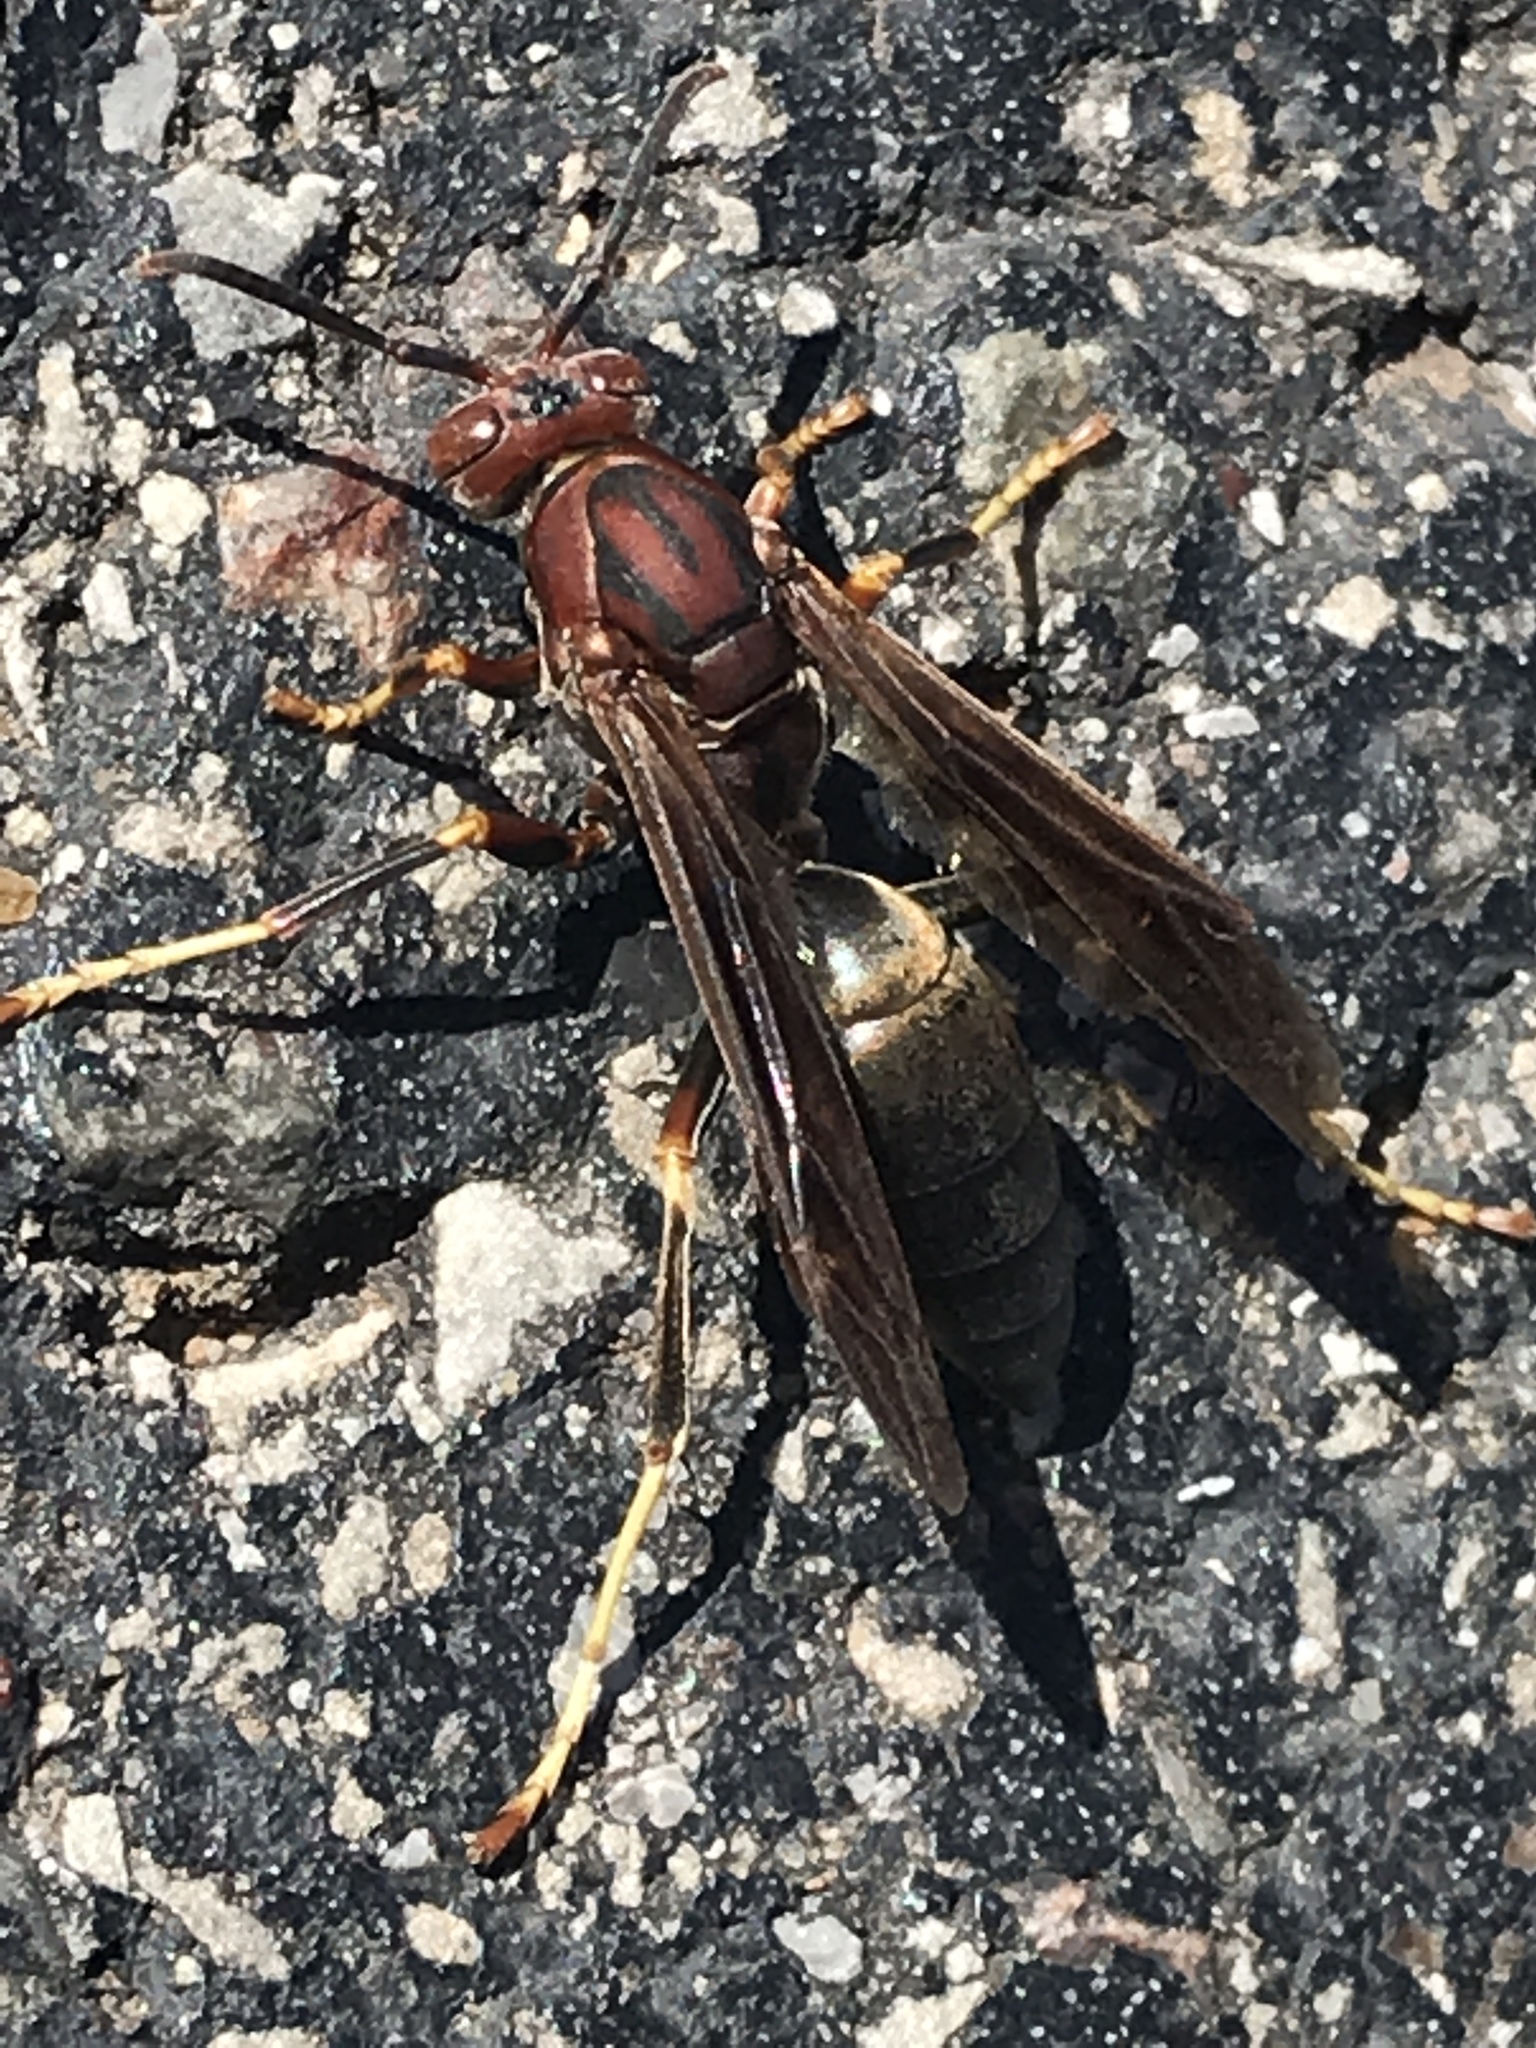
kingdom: Animalia
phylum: Arthropoda
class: Insecta
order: Hymenoptera
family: Eumenidae
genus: Polistes
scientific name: Polistes metricus
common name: Metric paper wasp
